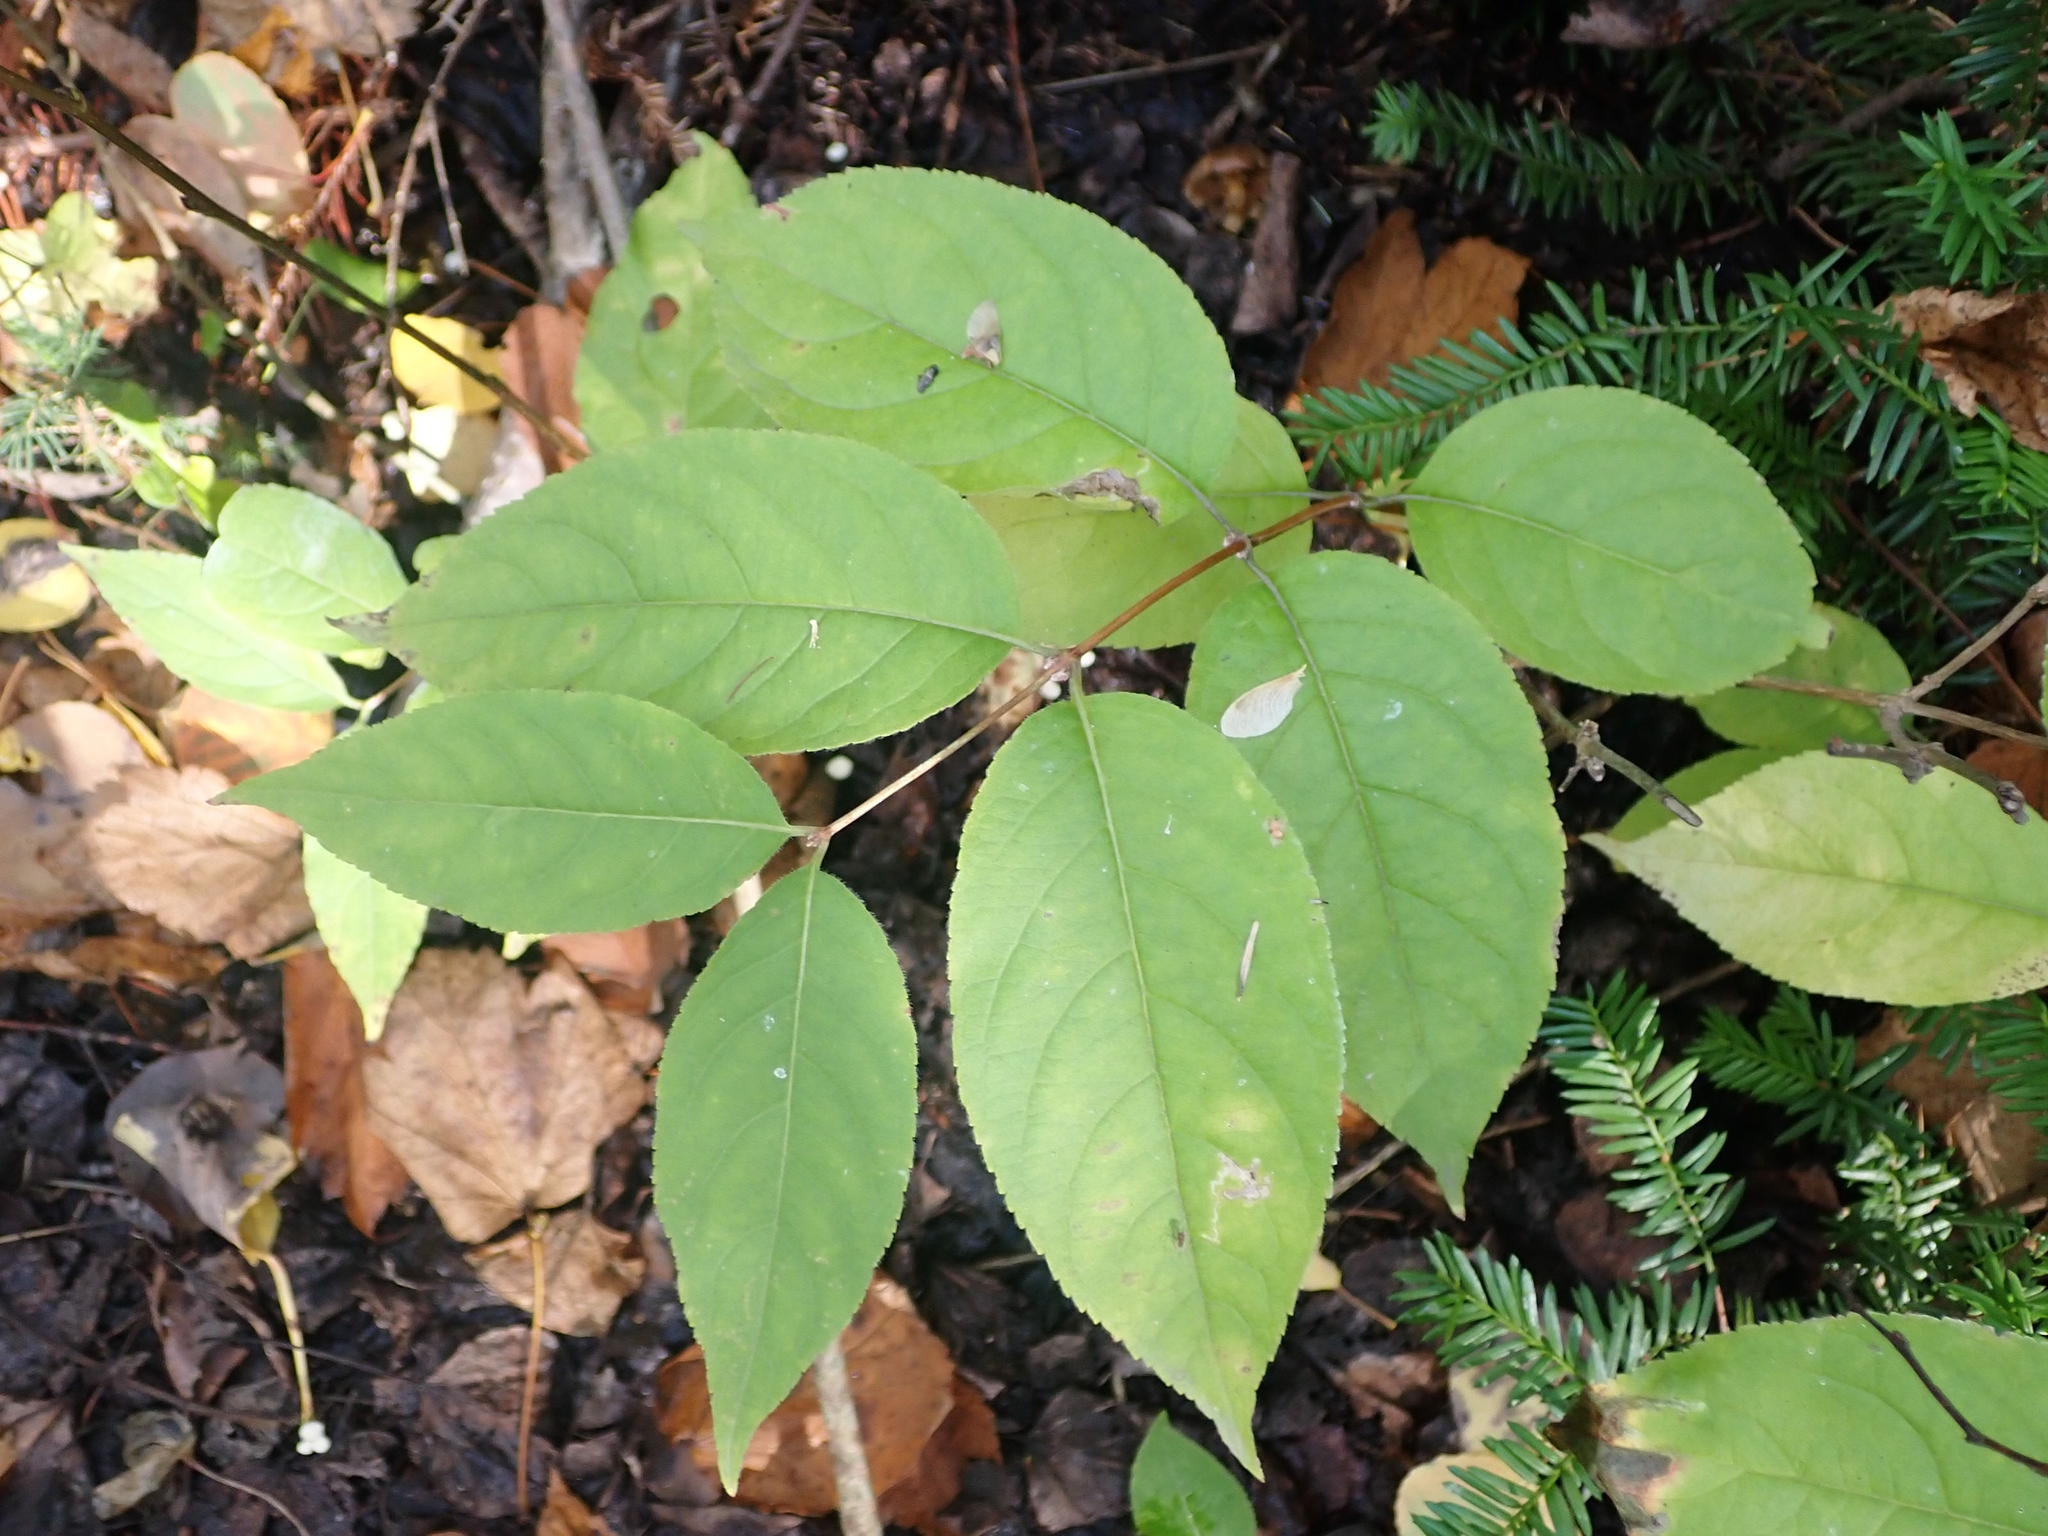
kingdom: Plantae
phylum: Tracheophyta
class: Magnoliopsida
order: Dipsacales
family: Caprifoliaceae
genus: Diervilla
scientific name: Diervilla lonicera
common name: Bush-honeysuckle
